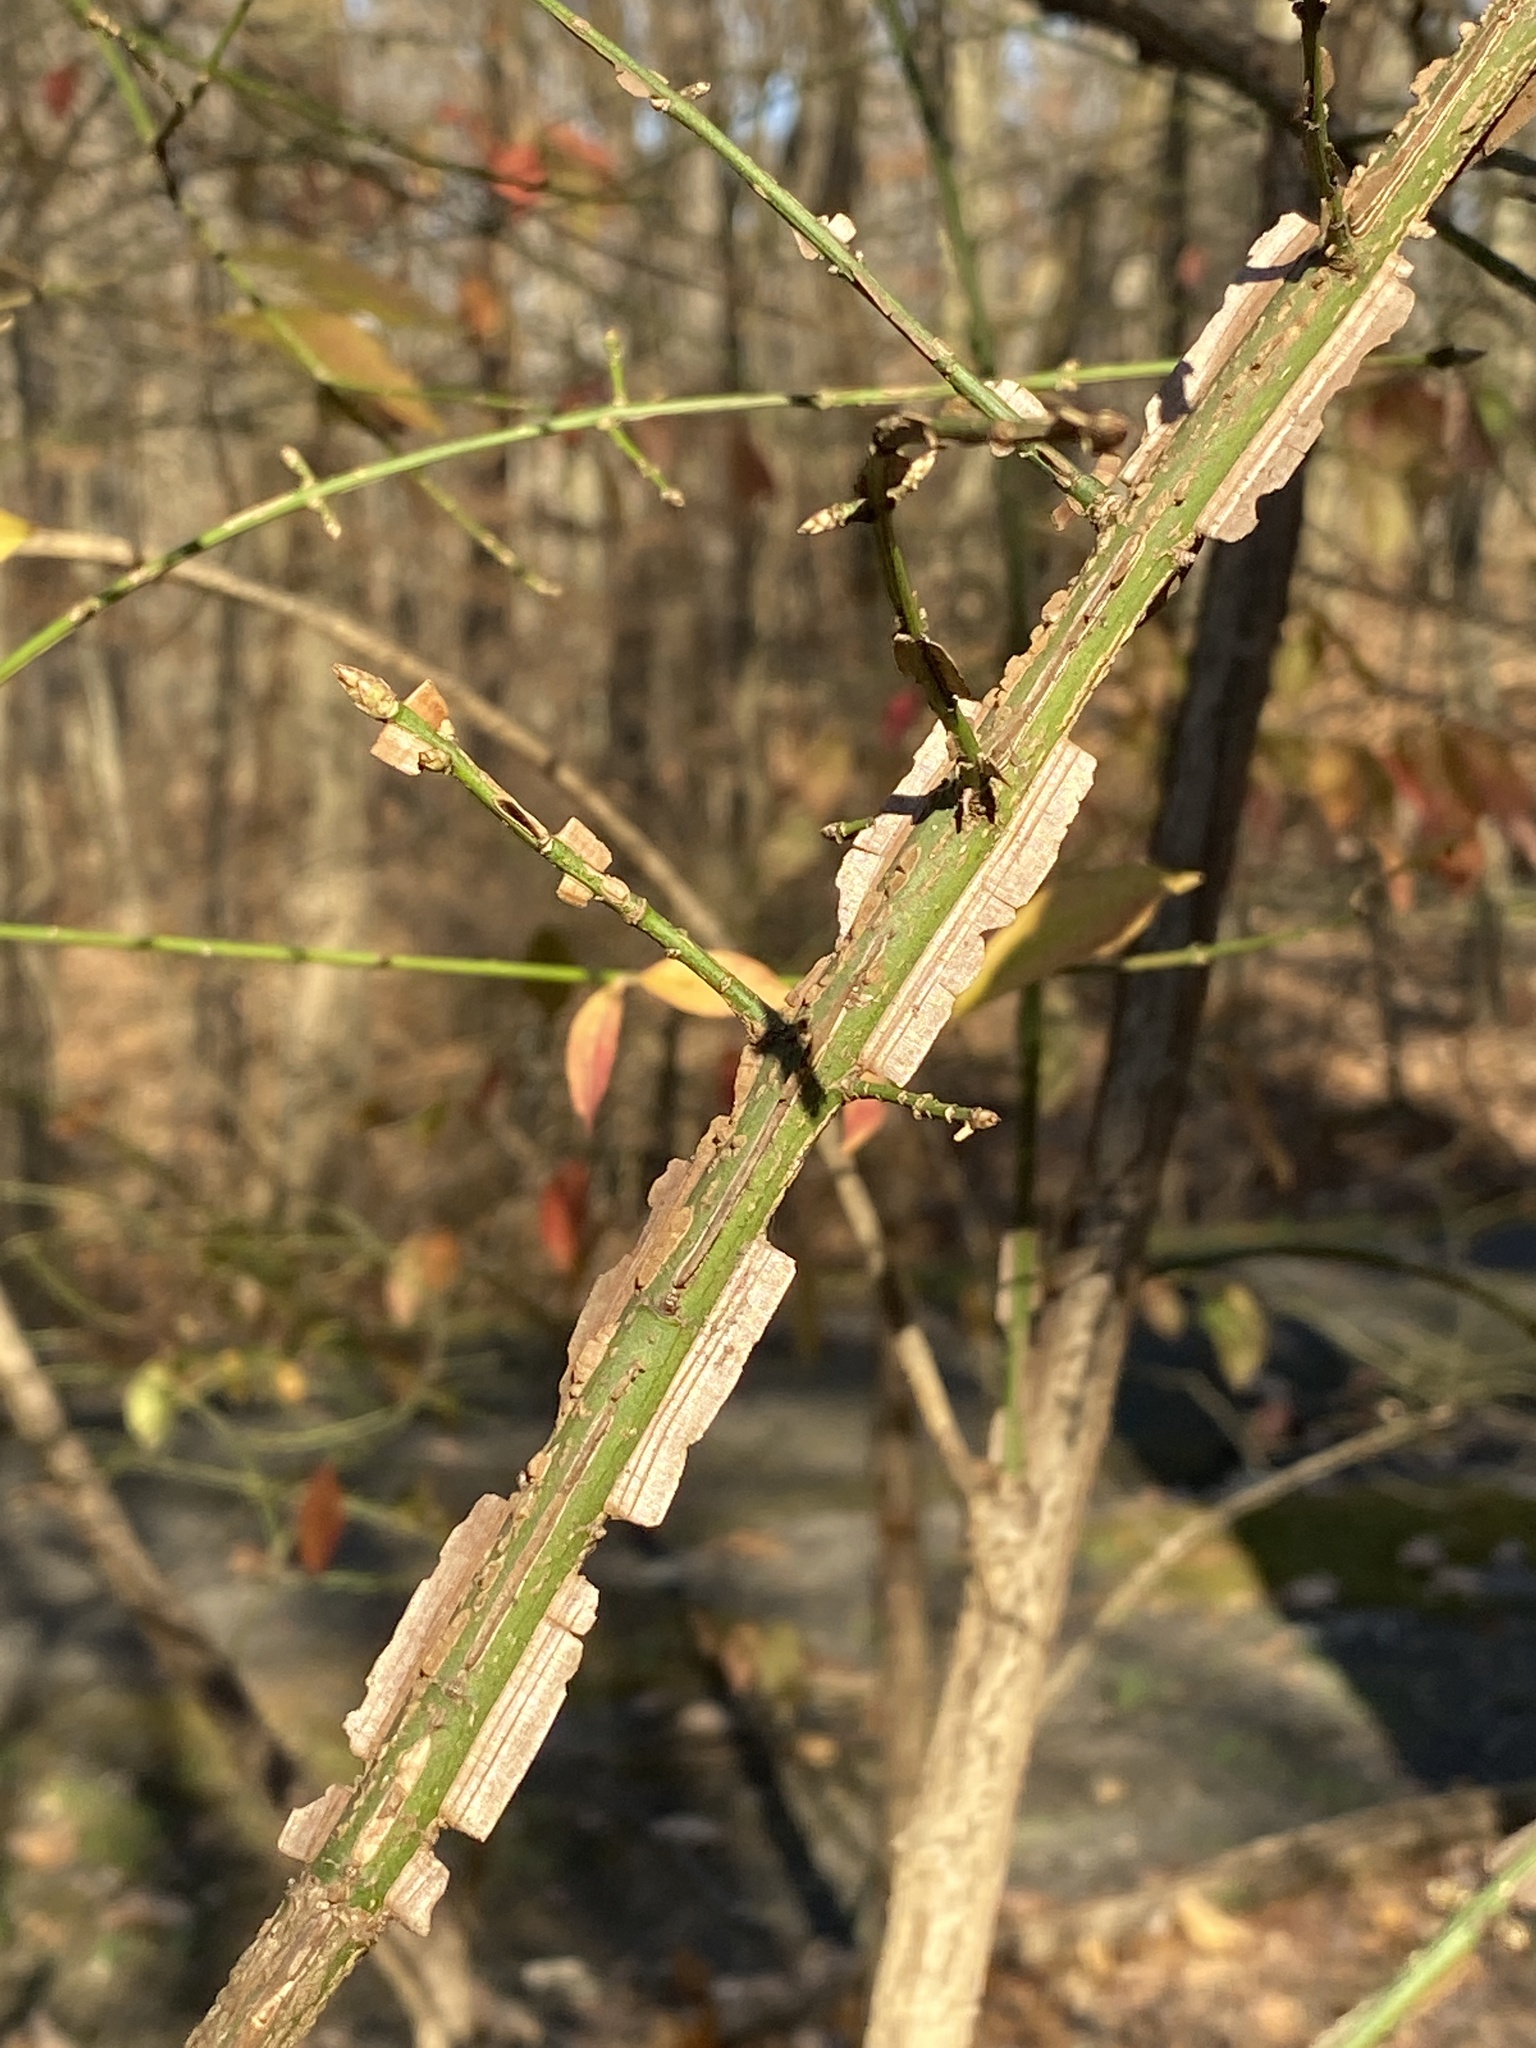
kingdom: Plantae
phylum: Tracheophyta
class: Magnoliopsida
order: Celastrales
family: Celastraceae
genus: Euonymus
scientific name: Euonymus alatus
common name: Winged euonymus
